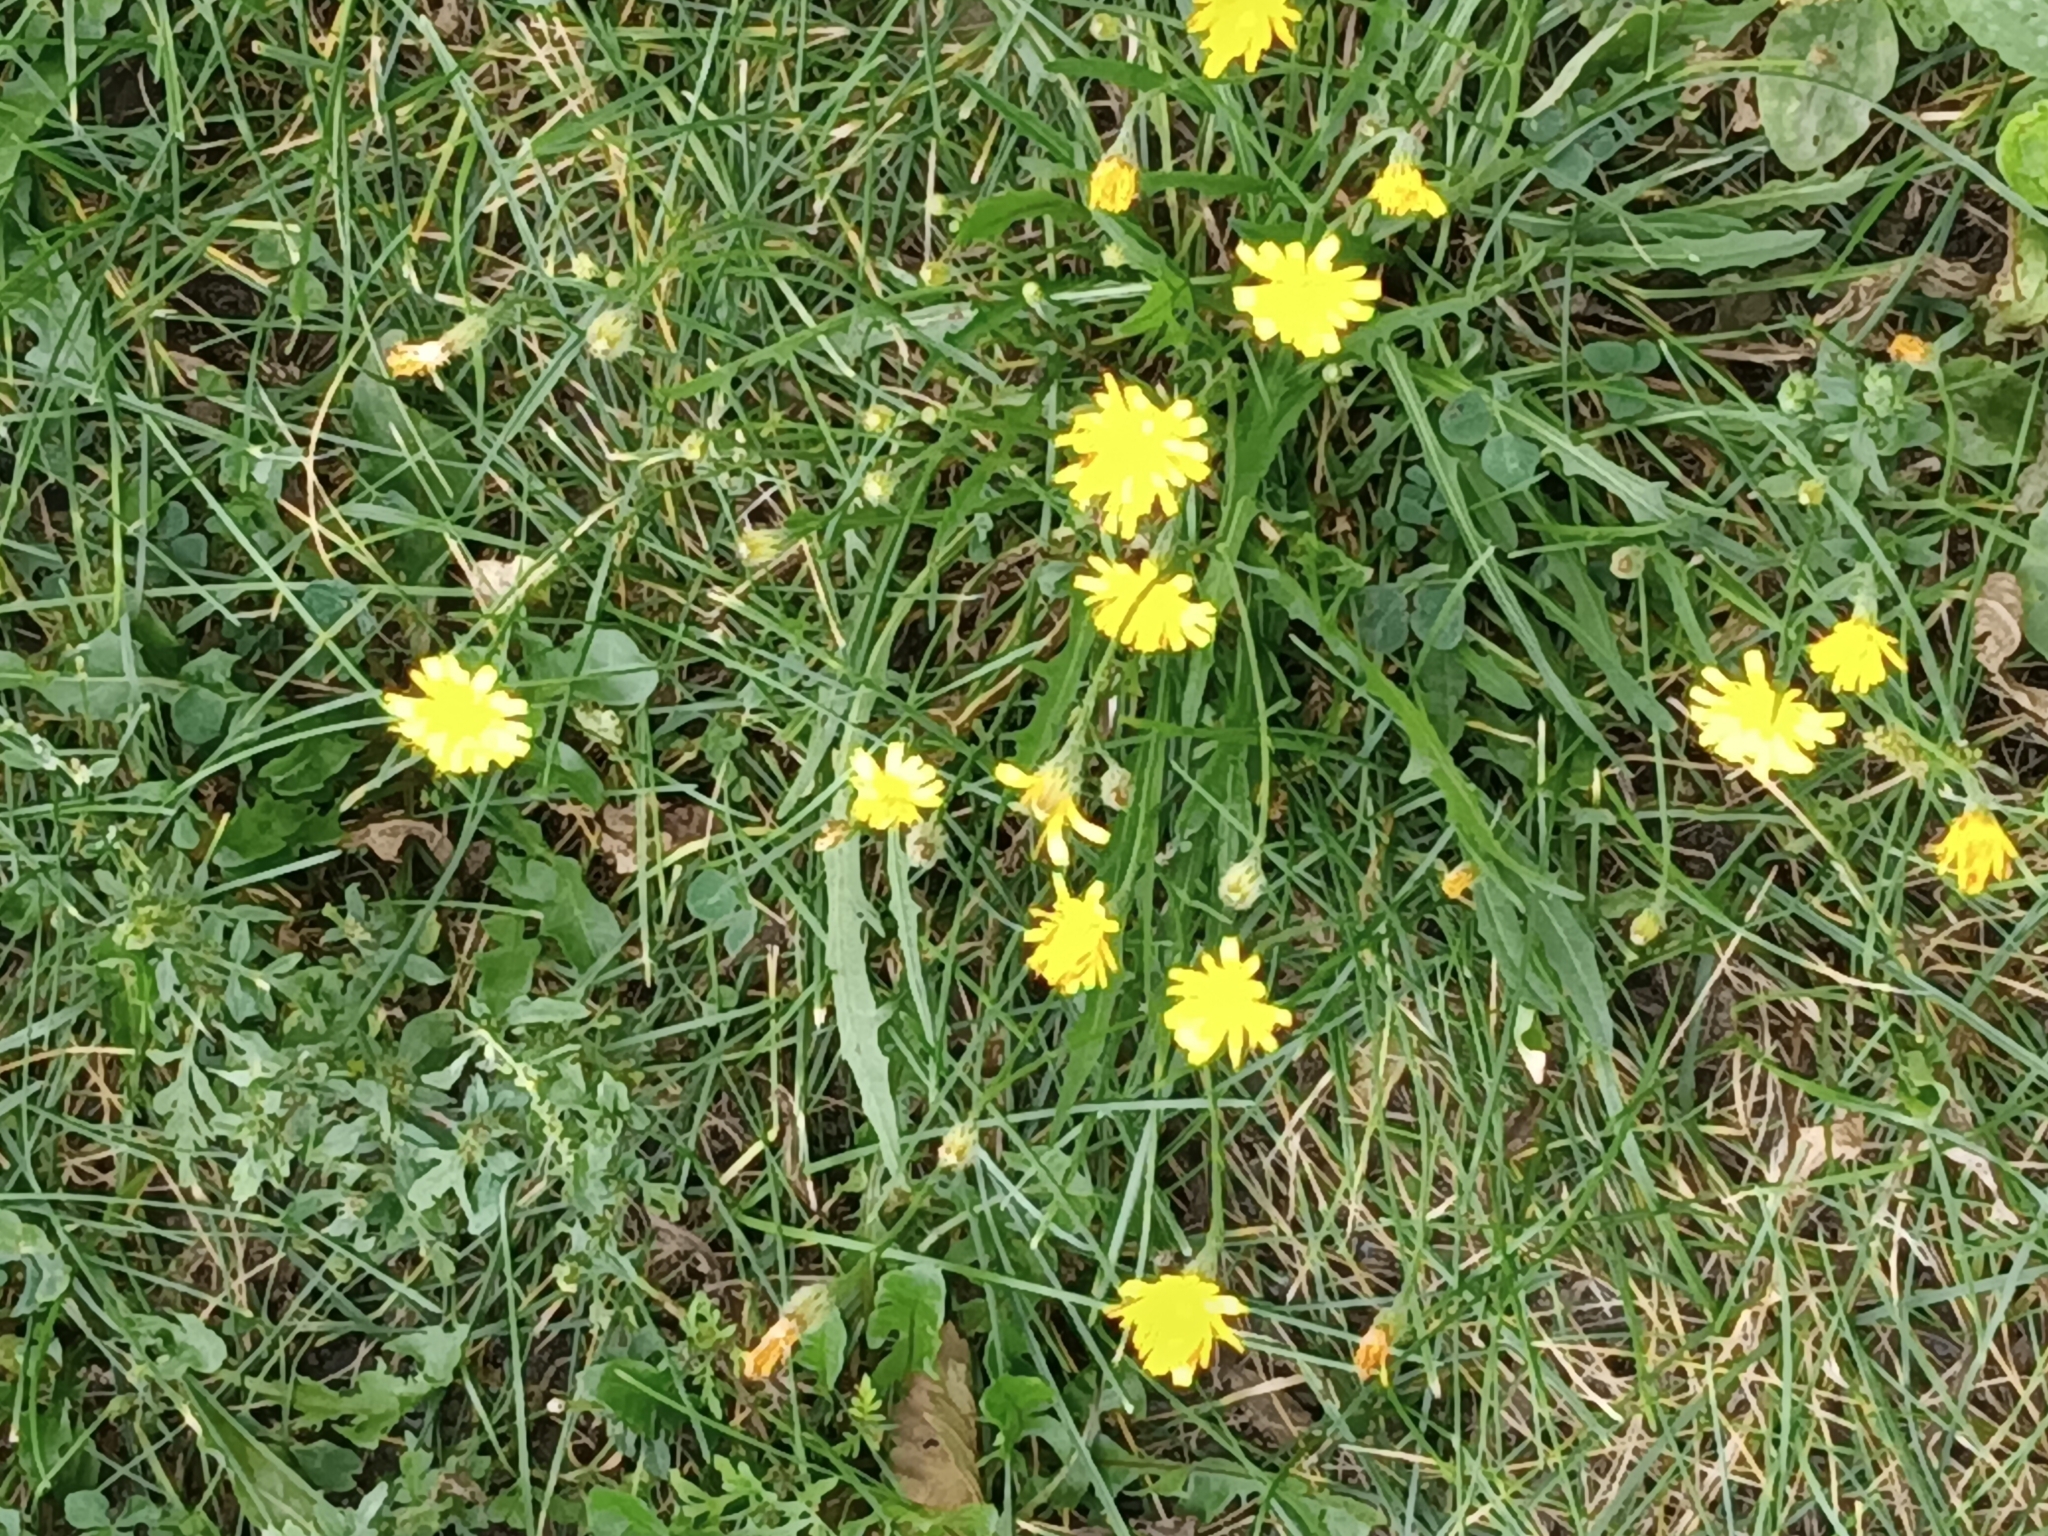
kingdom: Plantae
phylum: Tracheophyta
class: Magnoliopsida
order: Asterales
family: Asteraceae
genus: Scorzoneroides
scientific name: Scorzoneroides autumnalis
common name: Autumn hawkbit
